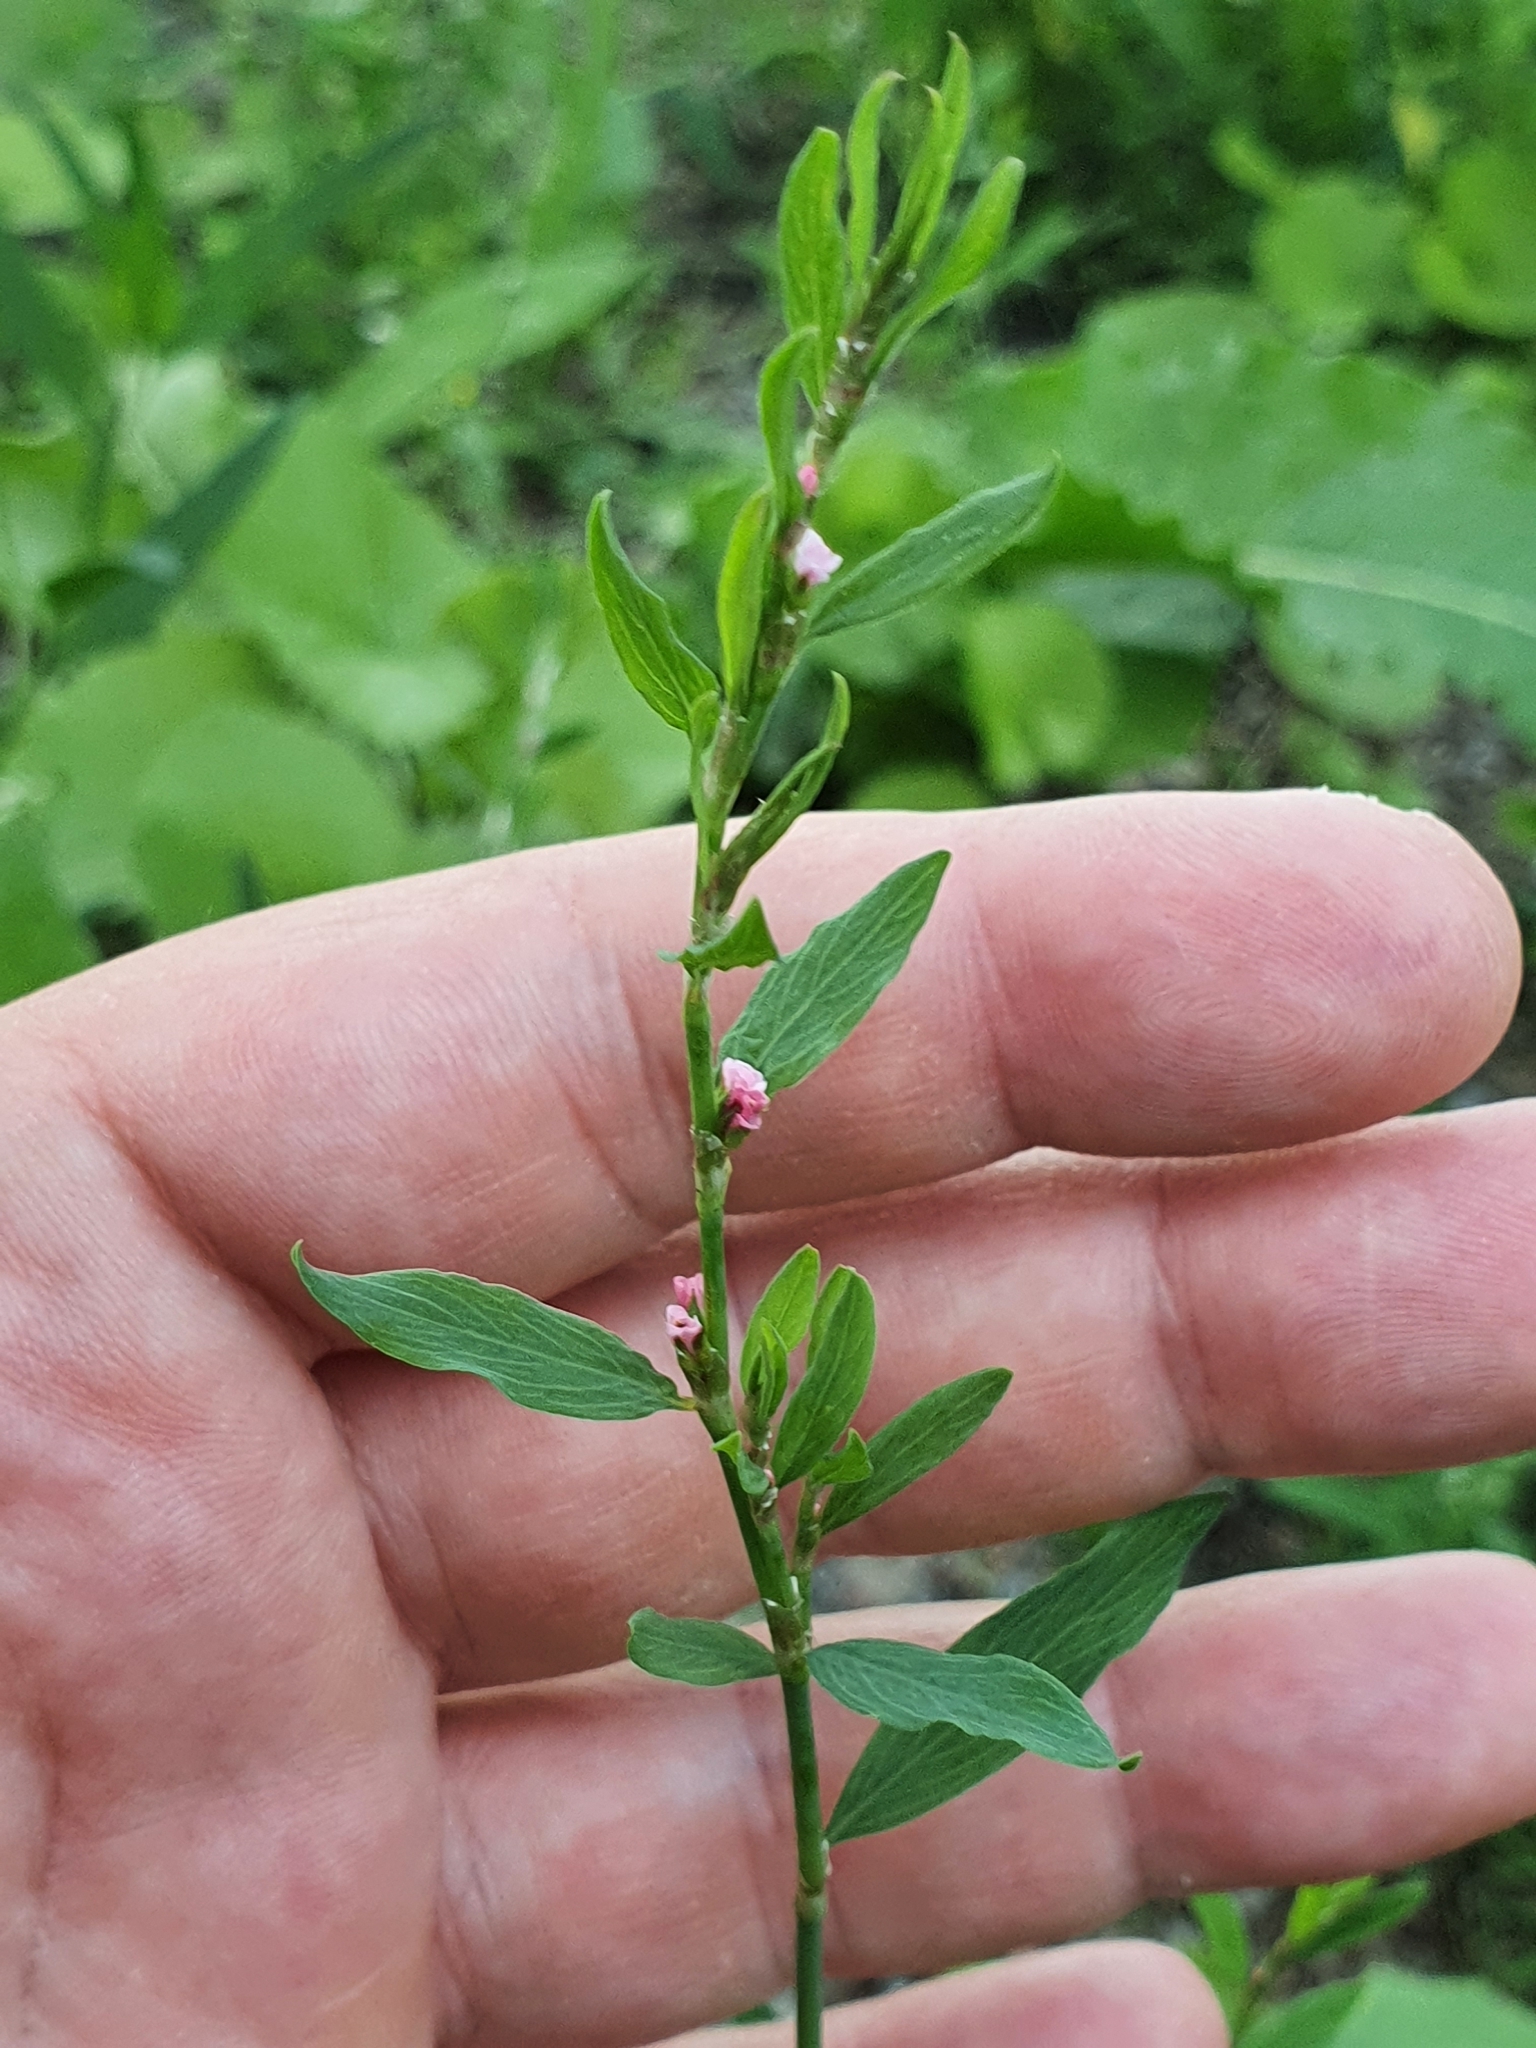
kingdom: Plantae
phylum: Tracheophyta
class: Magnoliopsida
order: Caryophyllales
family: Polygonaceae
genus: Polygonum
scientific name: Polygonum aviculare
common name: Prostrate knotweed
